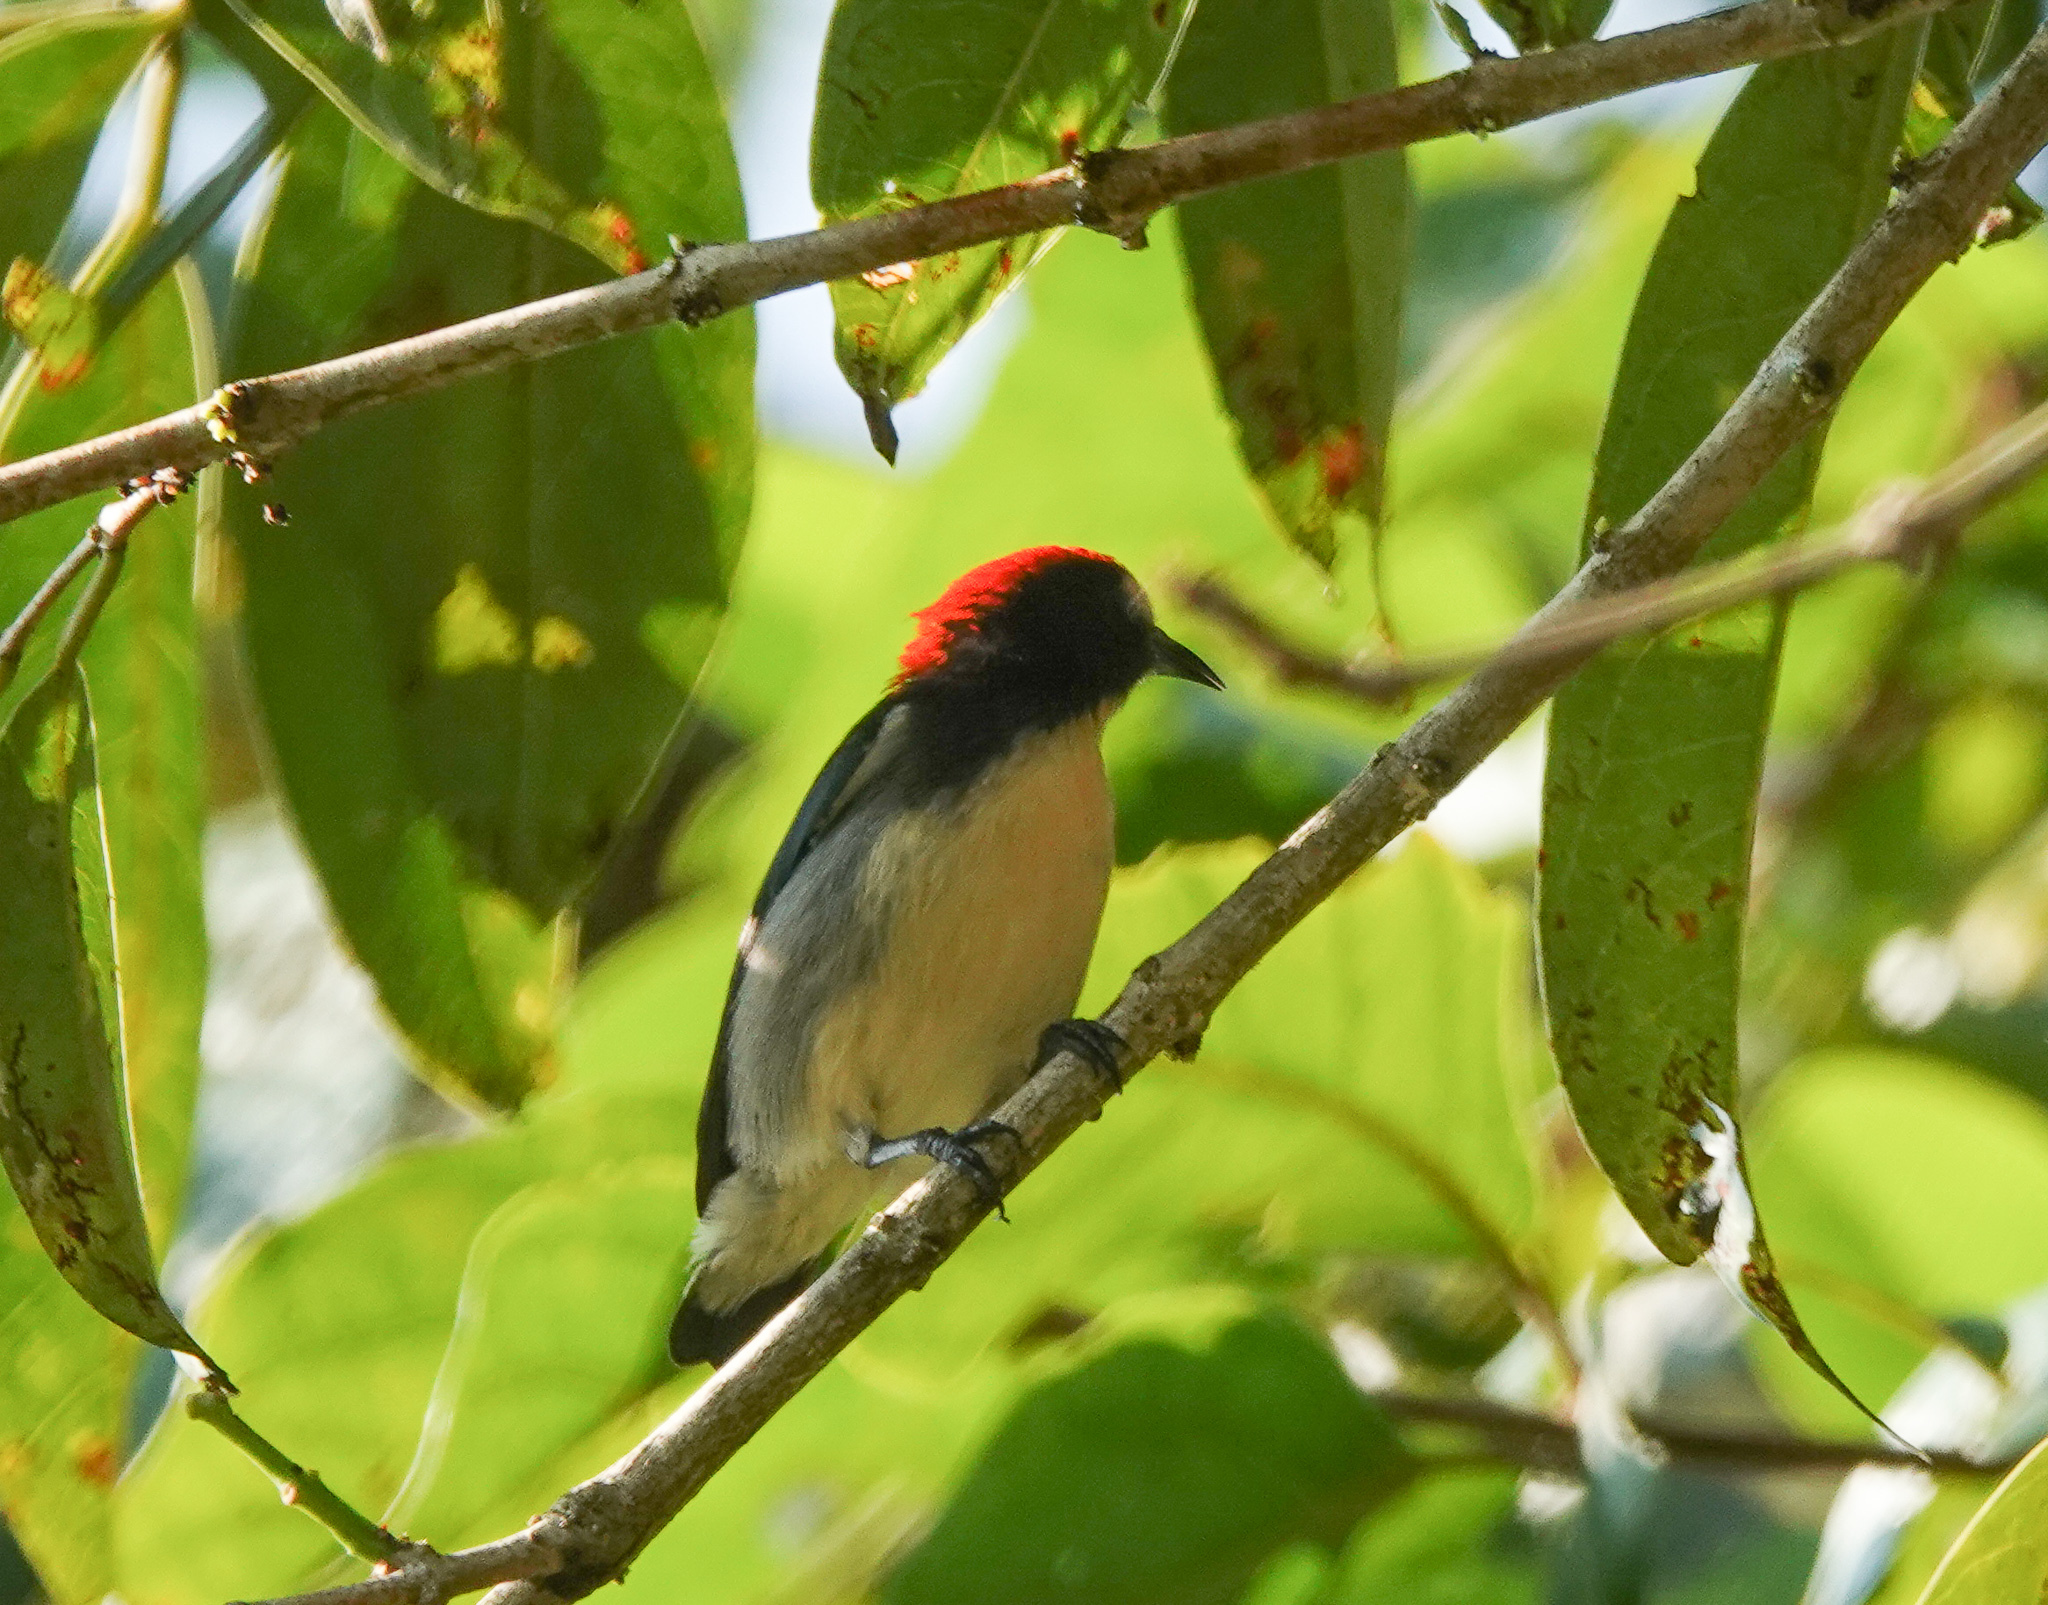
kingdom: Animalia
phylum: Chordata
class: Aves
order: Passeriformes
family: Dicaeidae
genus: Dicaeum
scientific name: Dicaeum cruentatum
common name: Scarlet-backed flowerpecker
